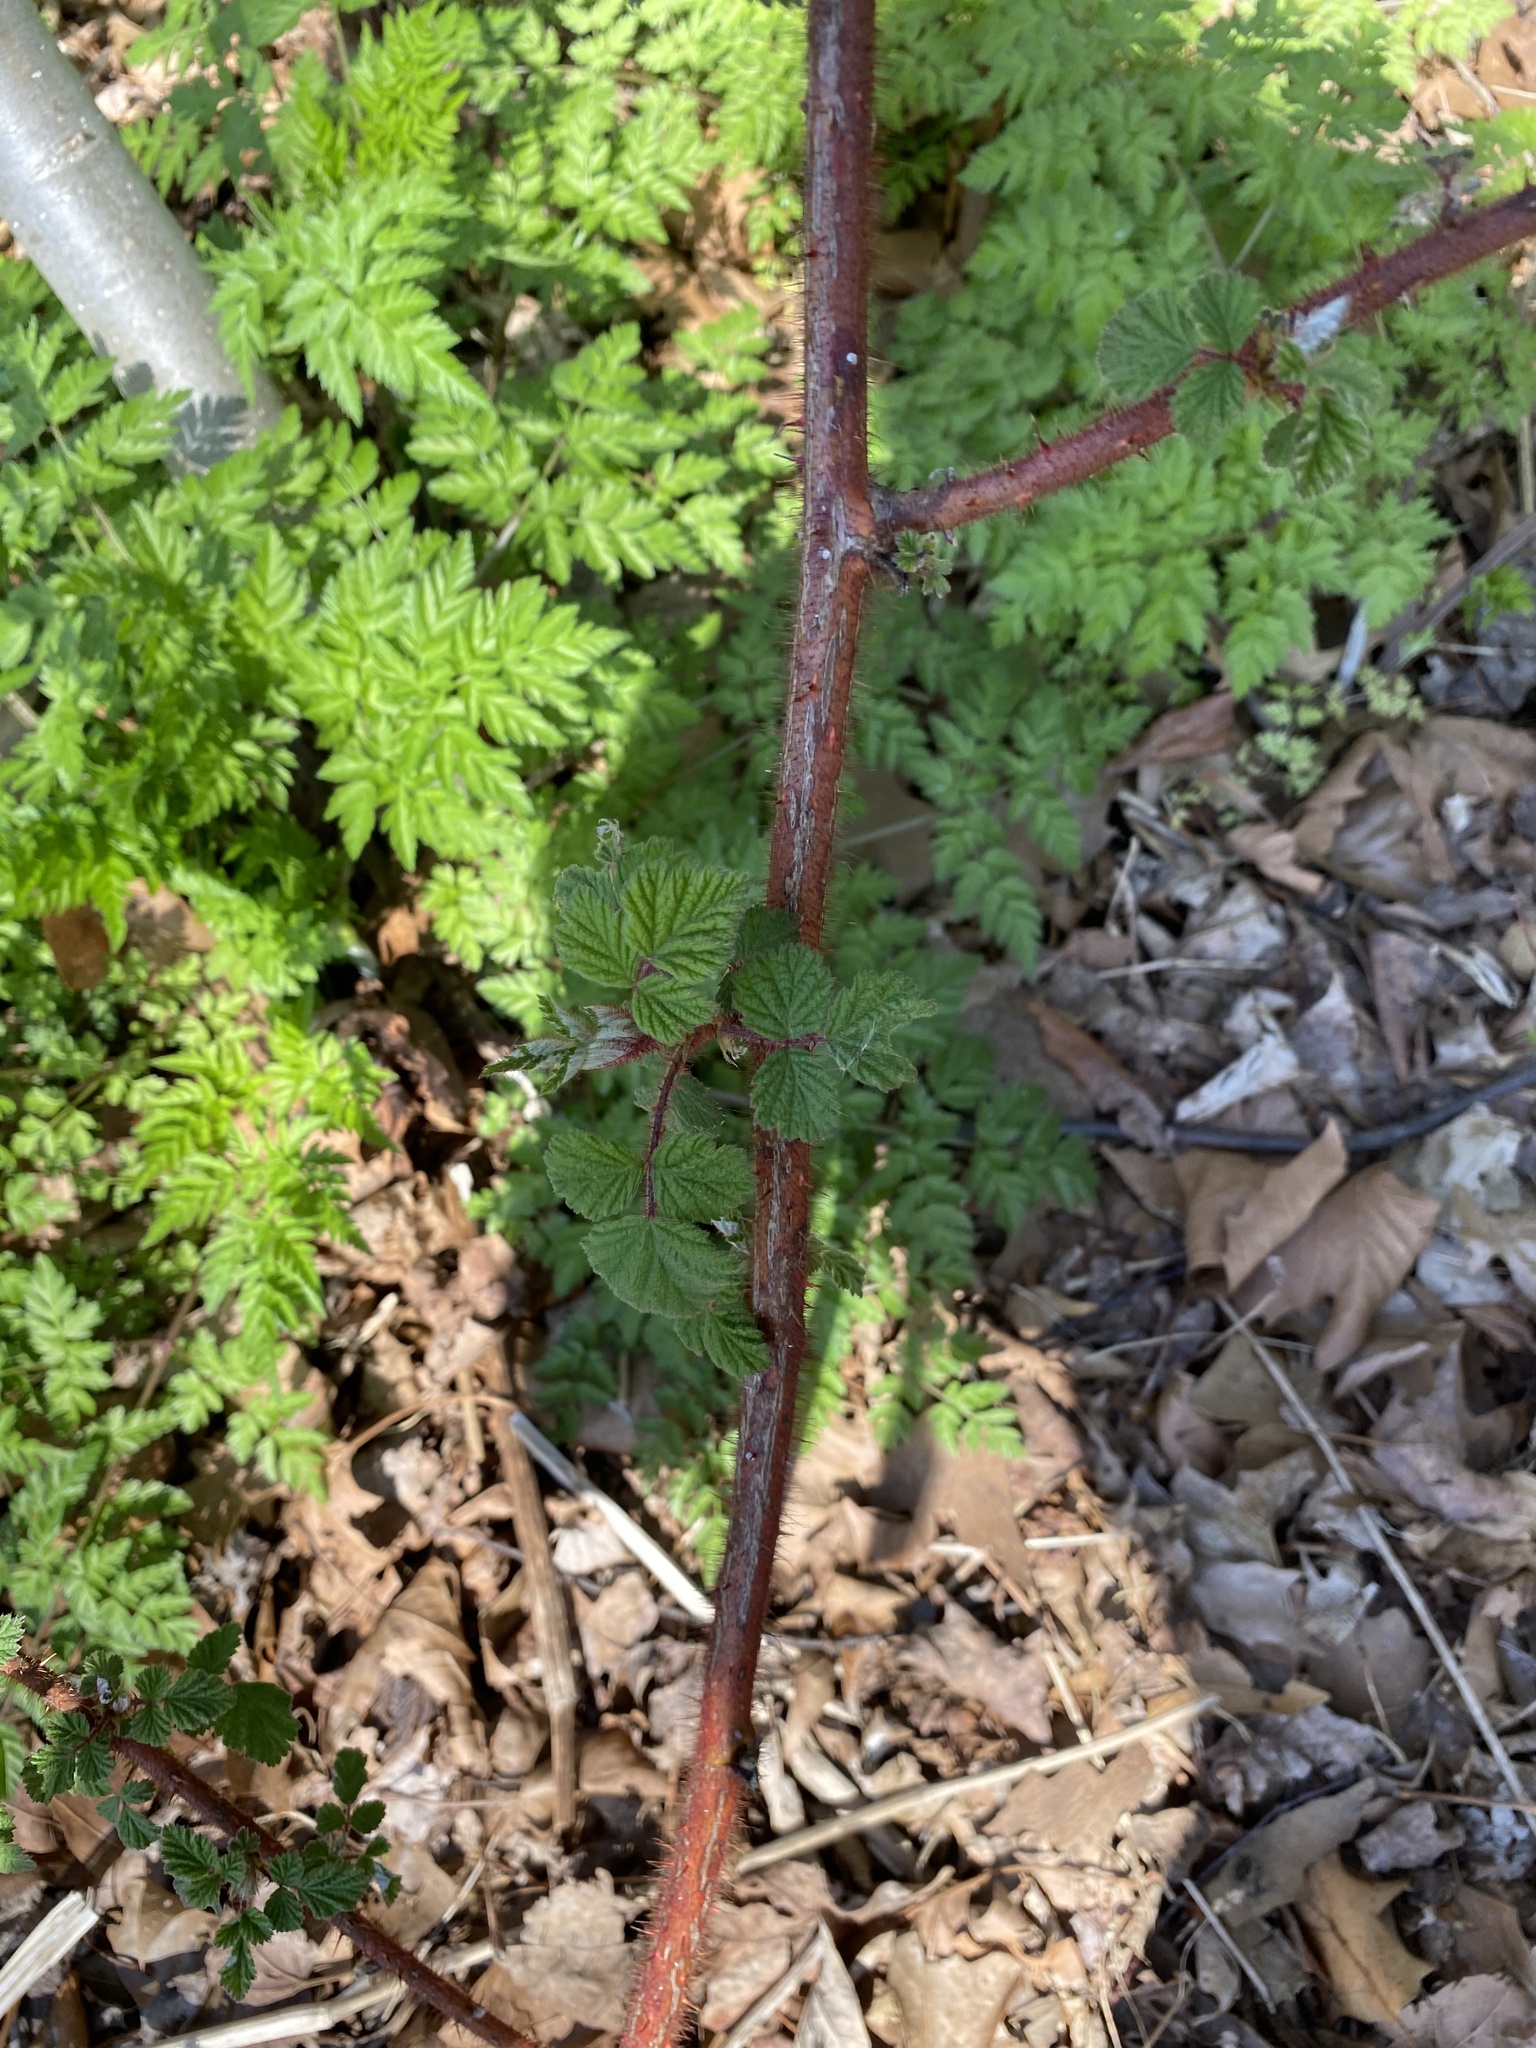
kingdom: Plantae
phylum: Tracheophyta
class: Magnoliopsida
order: Rosales
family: Rosaceae
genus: Rubus
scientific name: Rubus phoenicolasius
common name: Japanese wineberry
